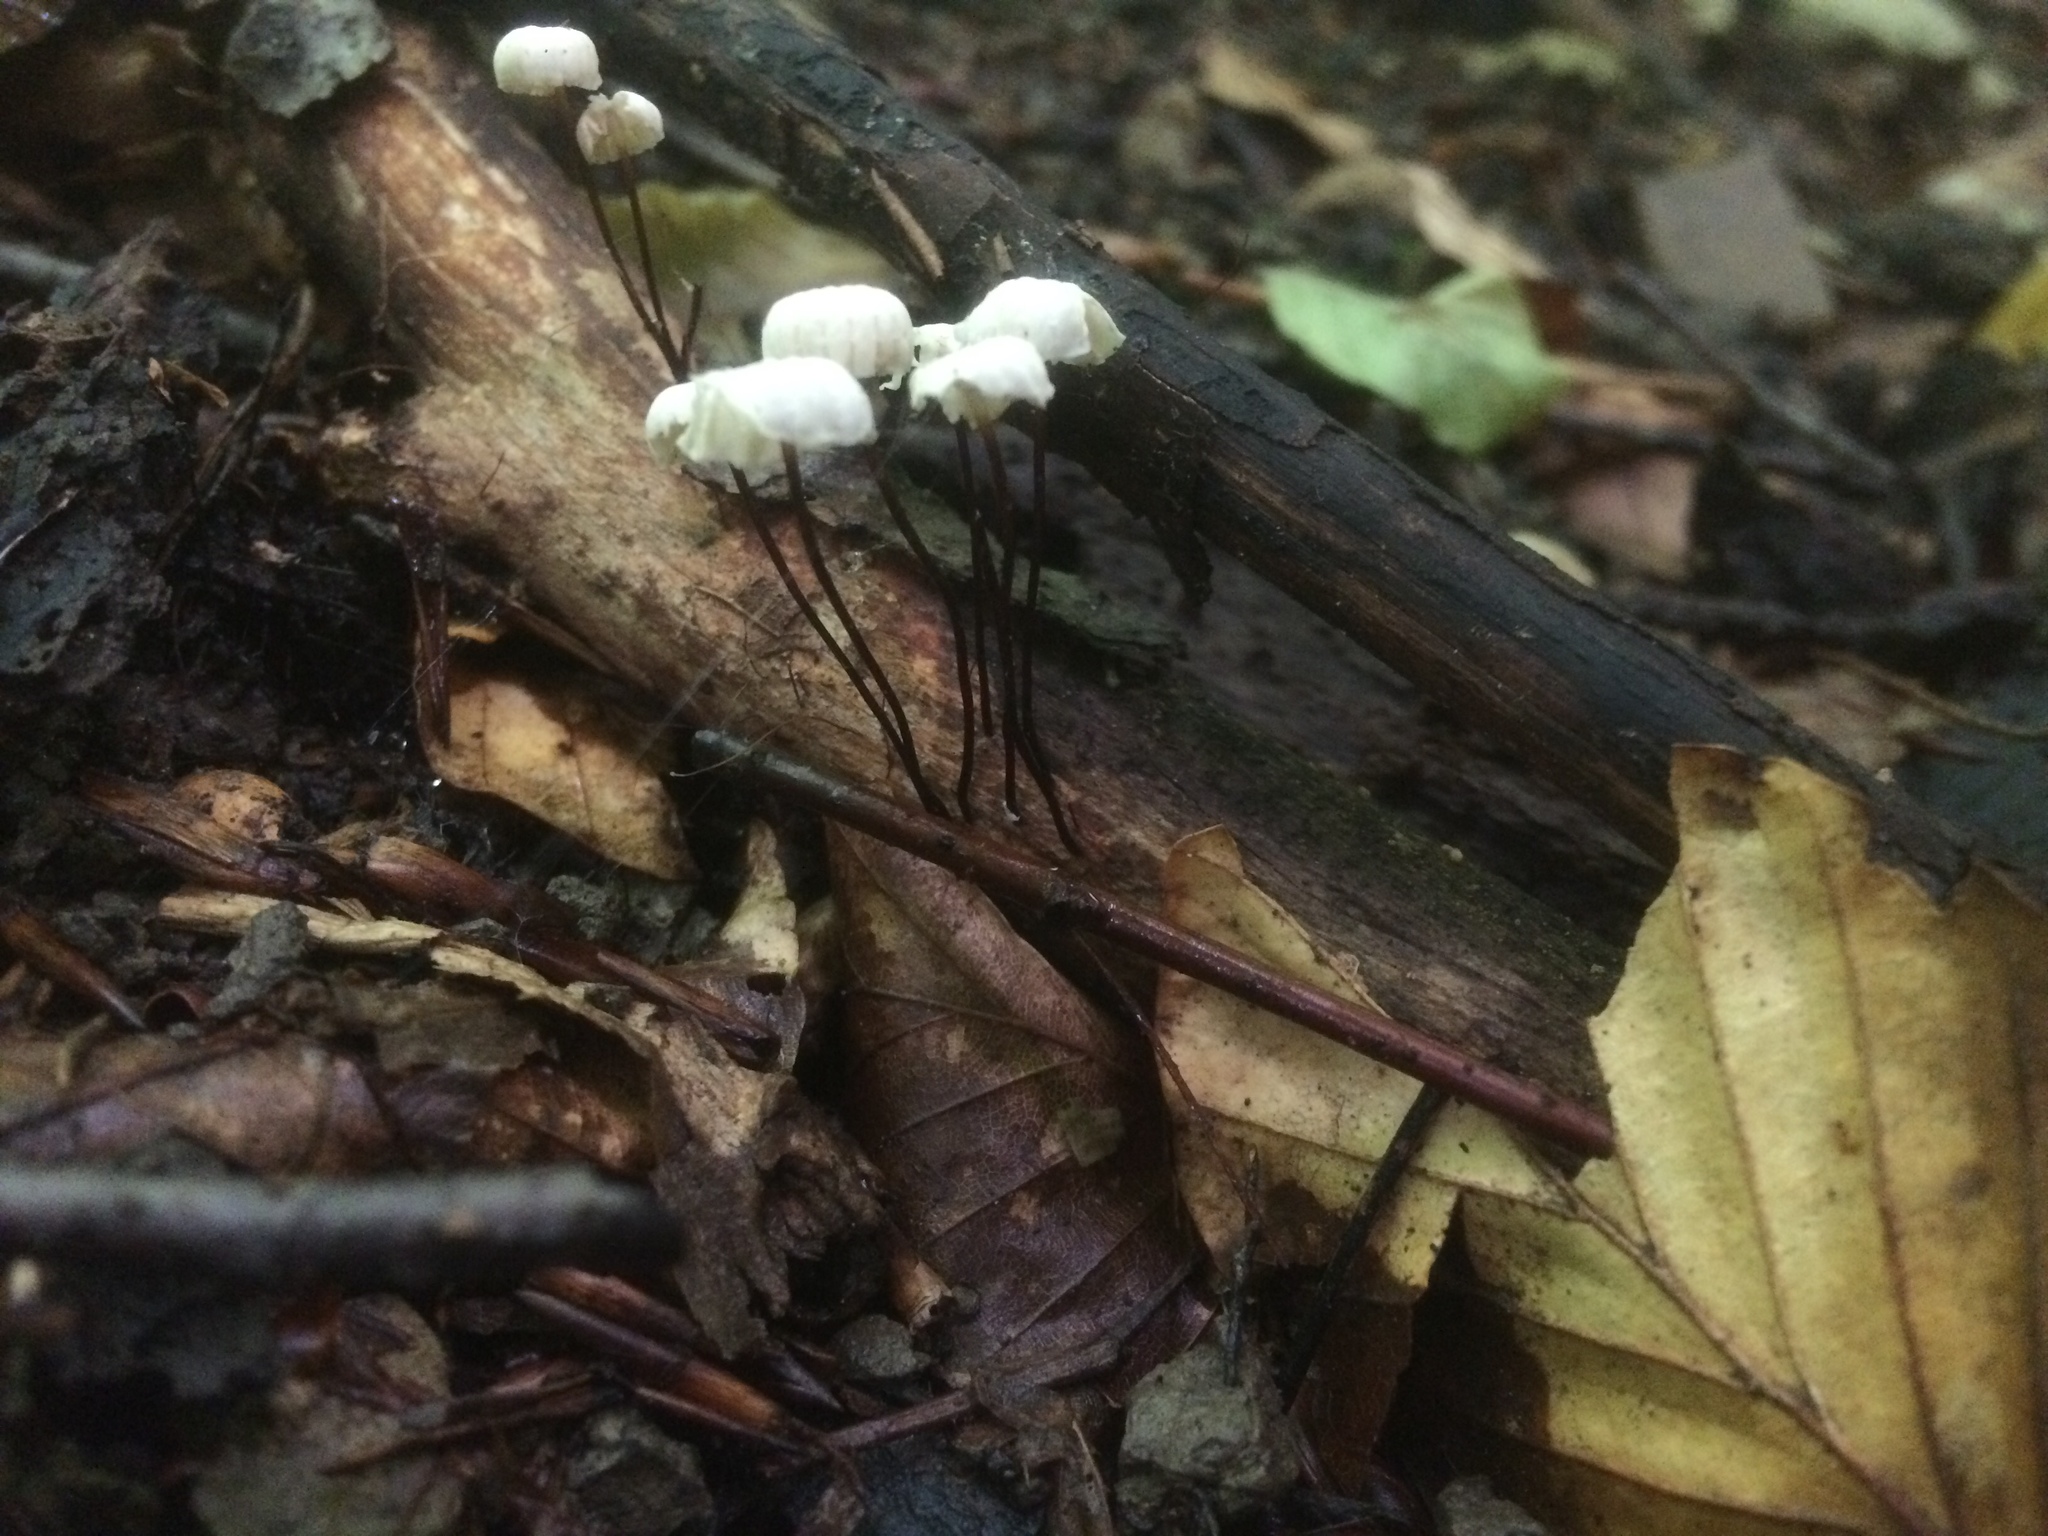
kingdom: Fungi
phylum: Basidiomycota
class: Agaricomycetes
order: Agaricales
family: Marasmiaceae
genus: Marasmius
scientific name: Marasmius rotula
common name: Collared parachute
